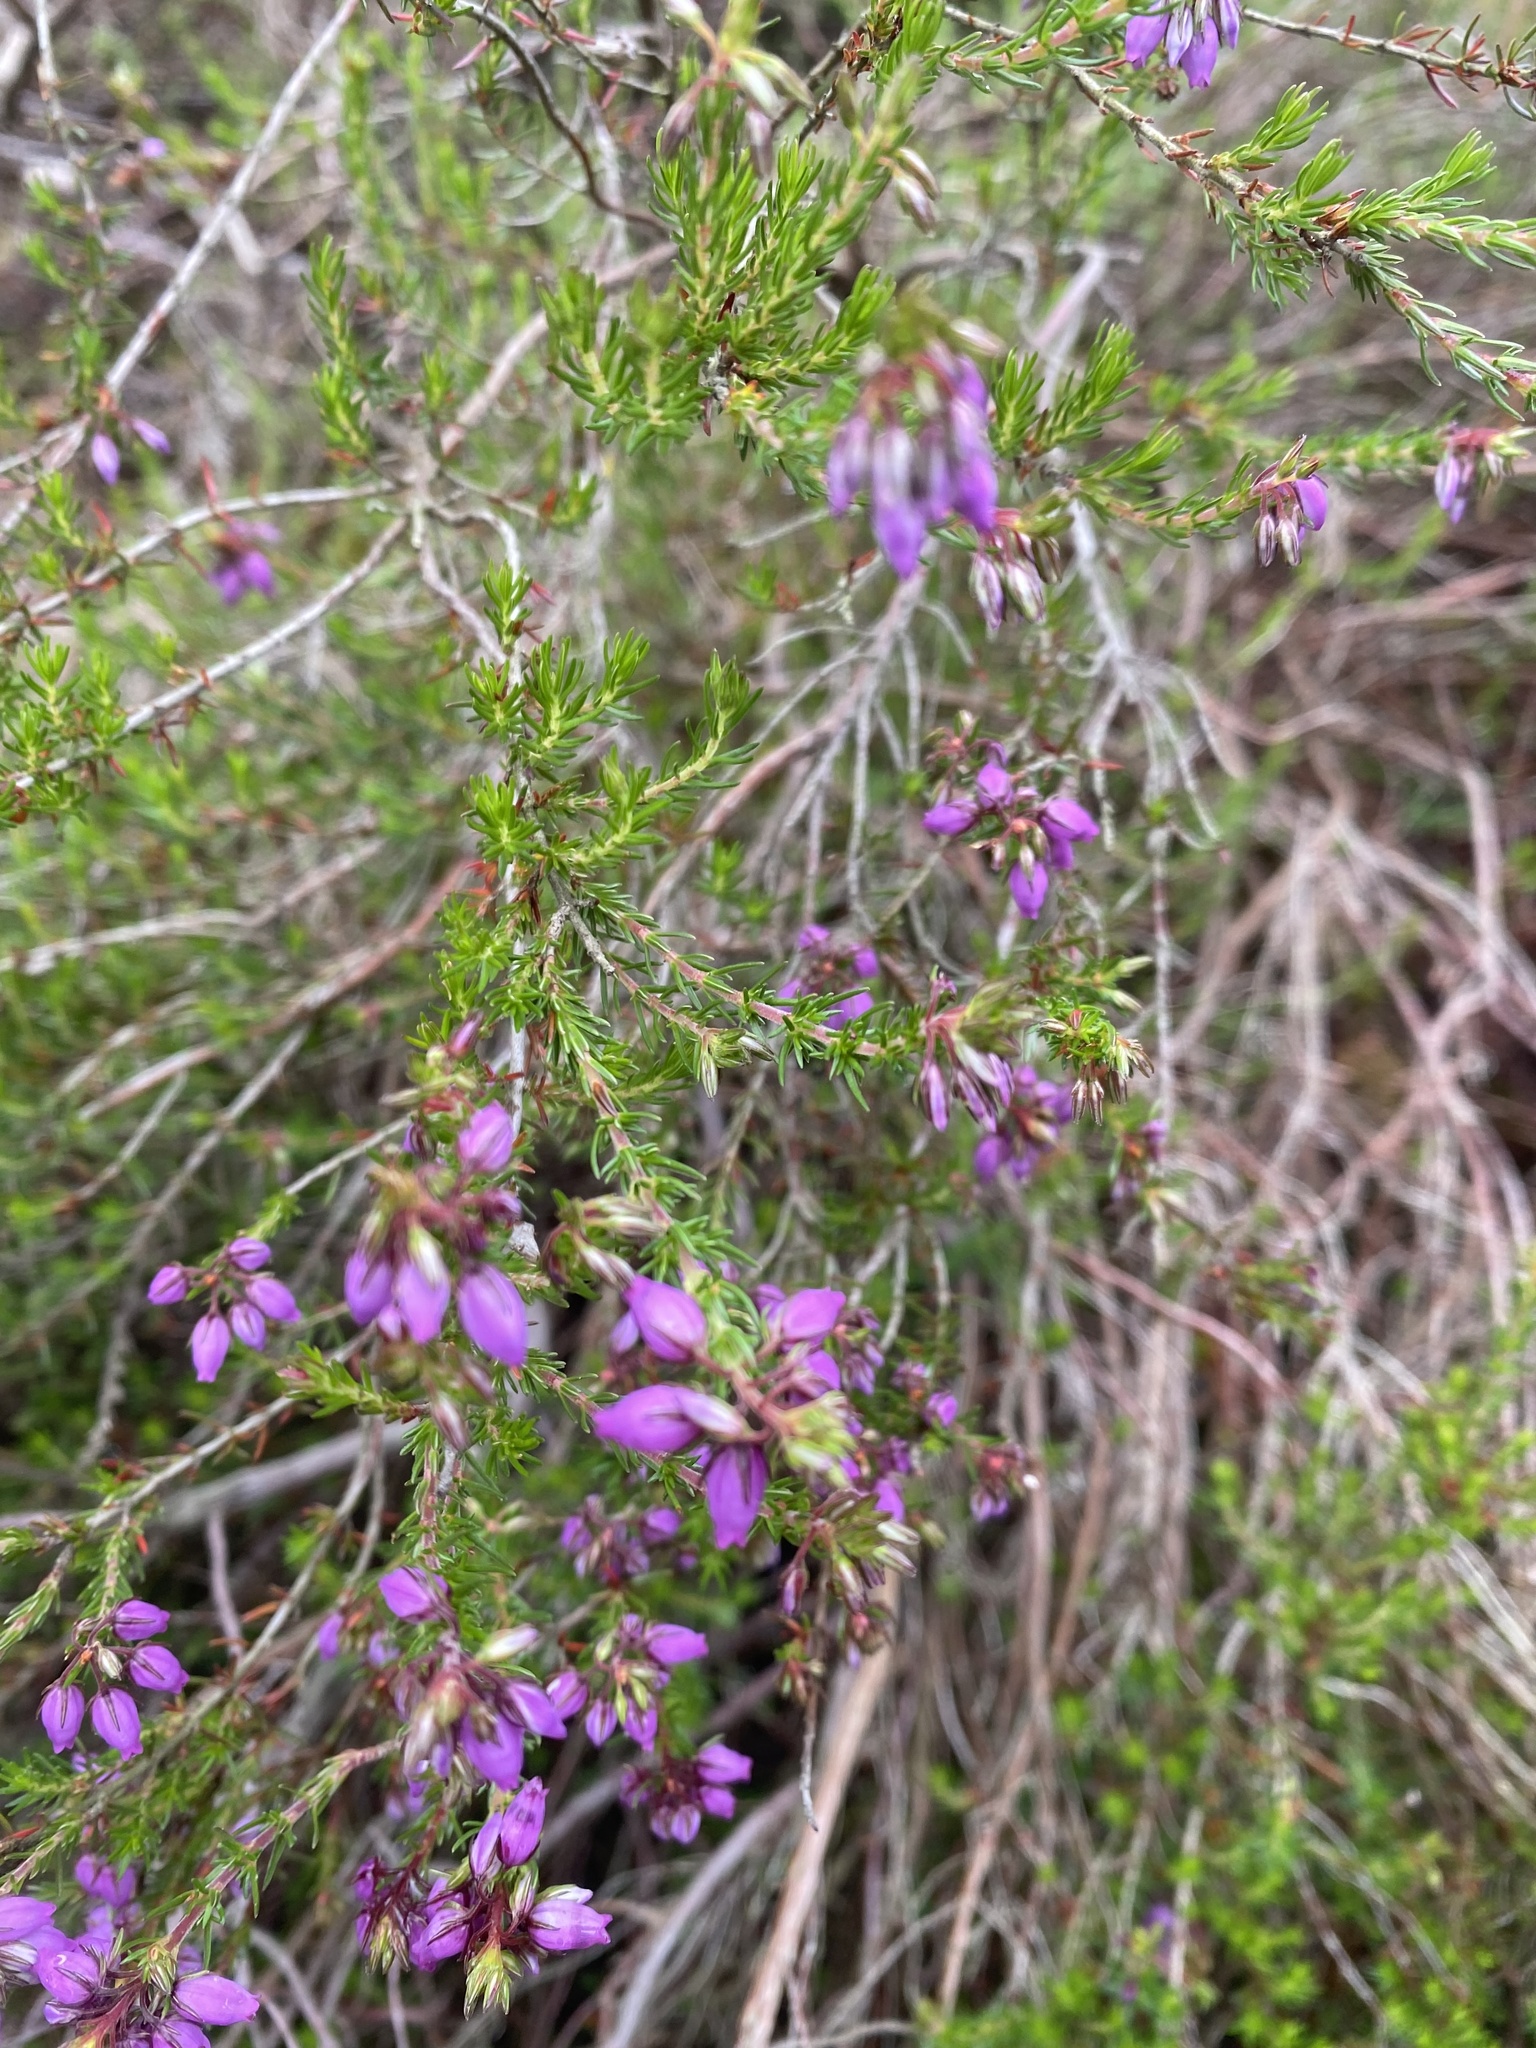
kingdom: Plantae
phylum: Tracheophyta
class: Magnoliopsida
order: Ericales
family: Ericaceae
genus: Erica
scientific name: Erica cinerea
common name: Bell heather
